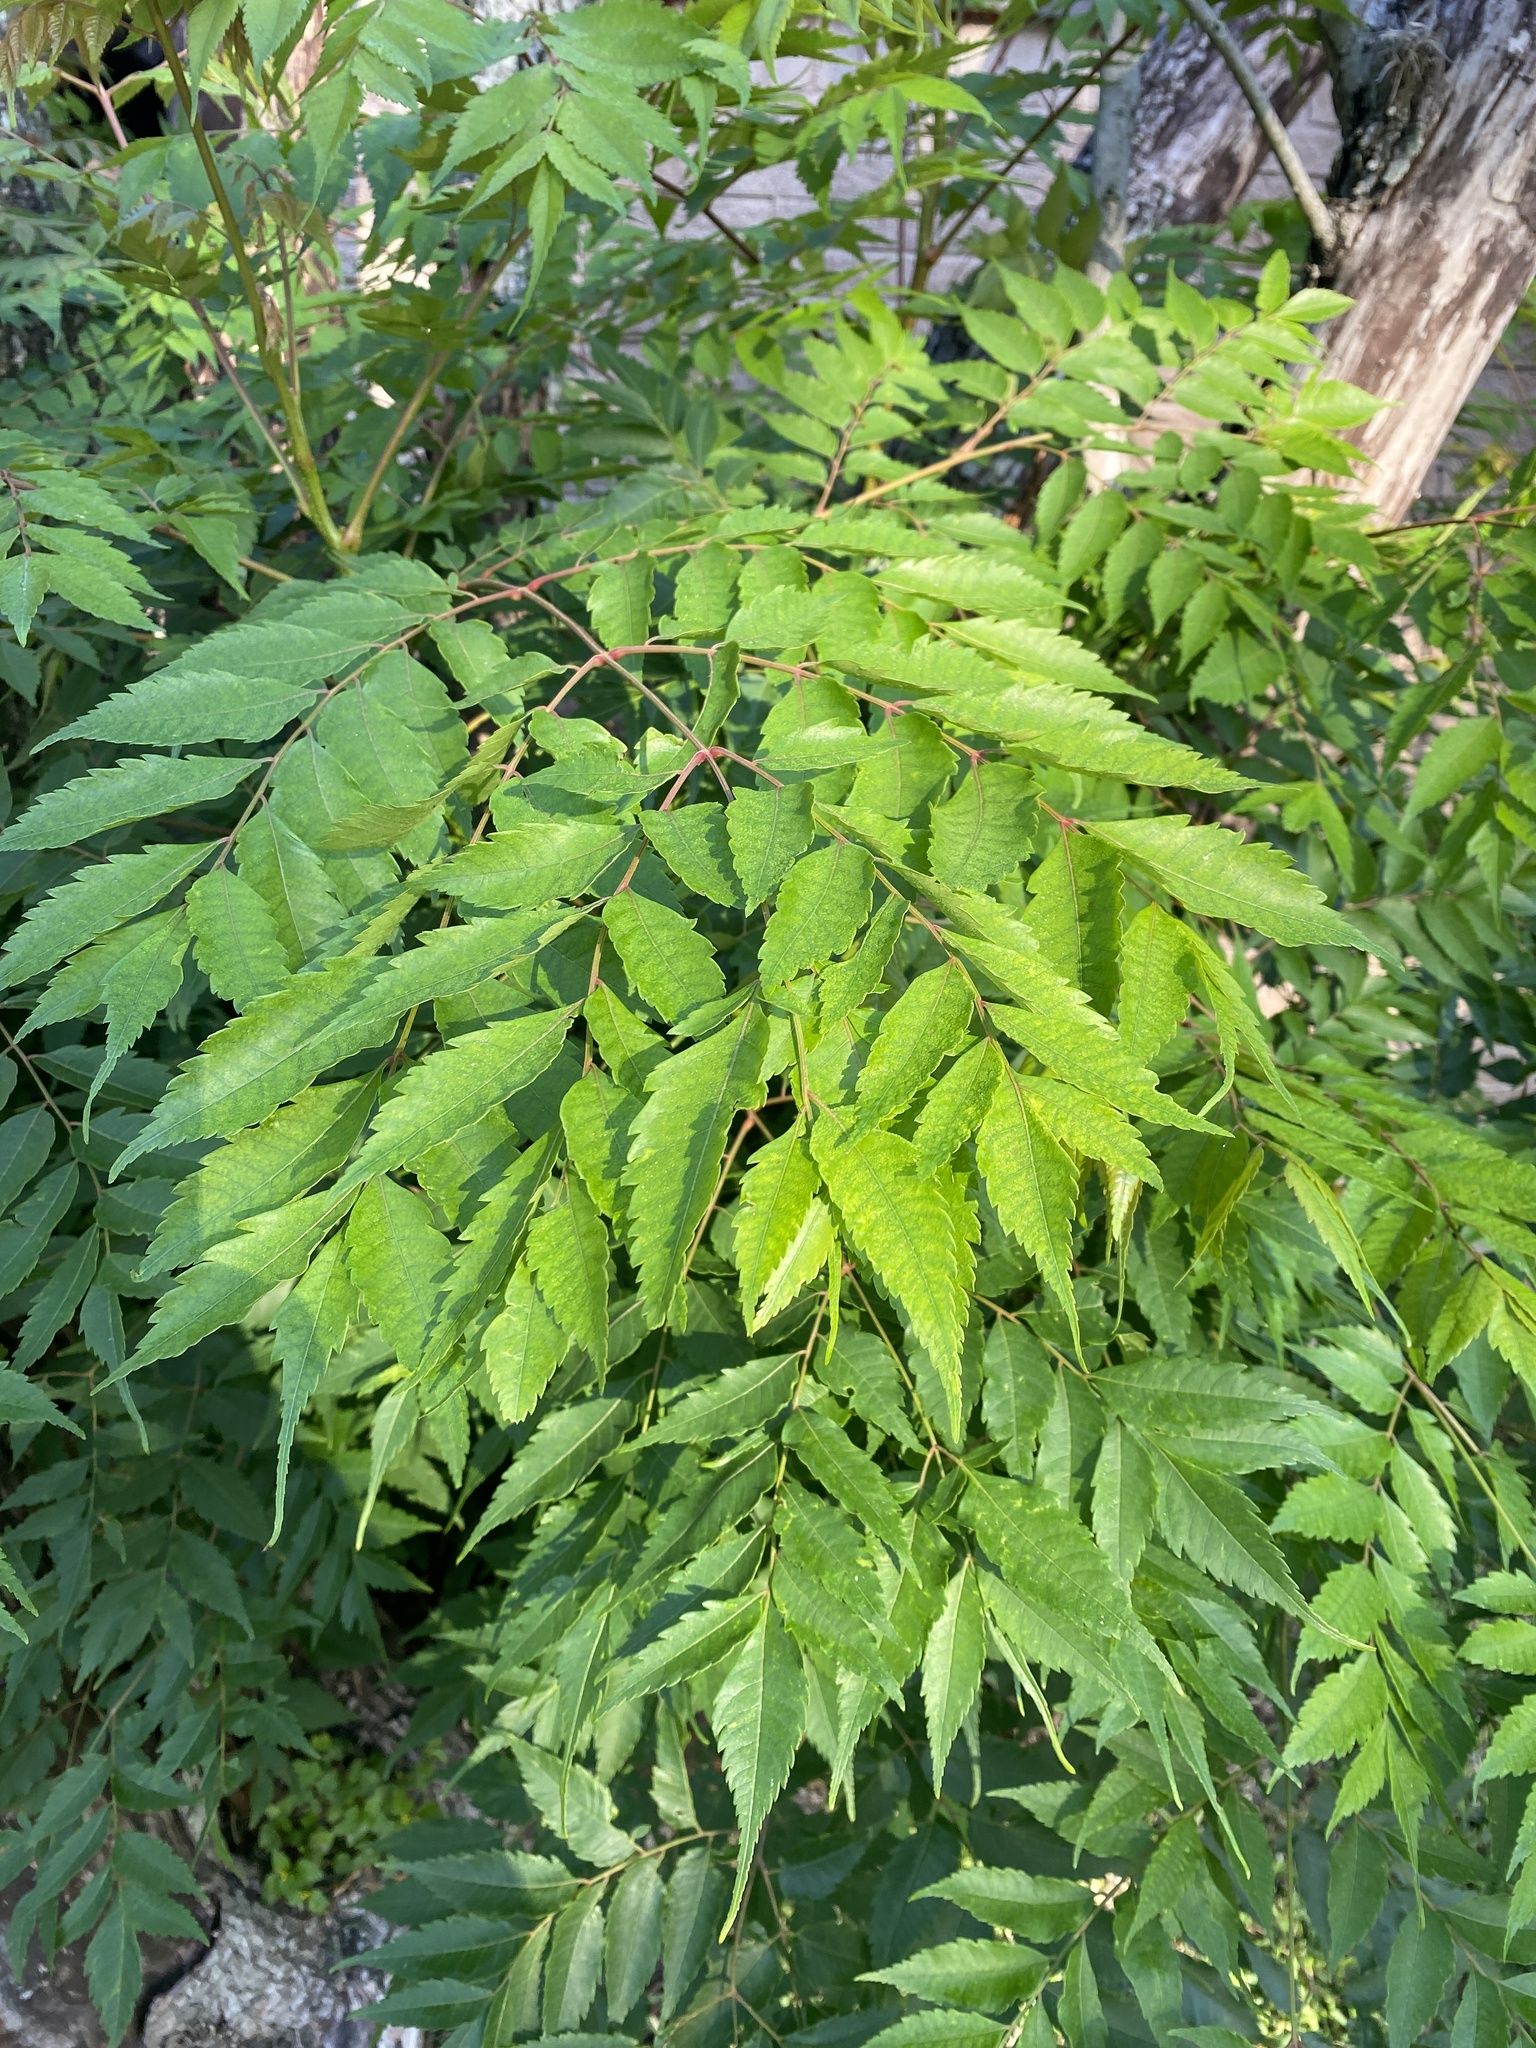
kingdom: Plantae
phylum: Tracheophyta
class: Magnoliopsida
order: Sapindales
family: Sapindaceae
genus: Koelreuteria
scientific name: Koelreuteria elegans
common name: Chinese flame tree
